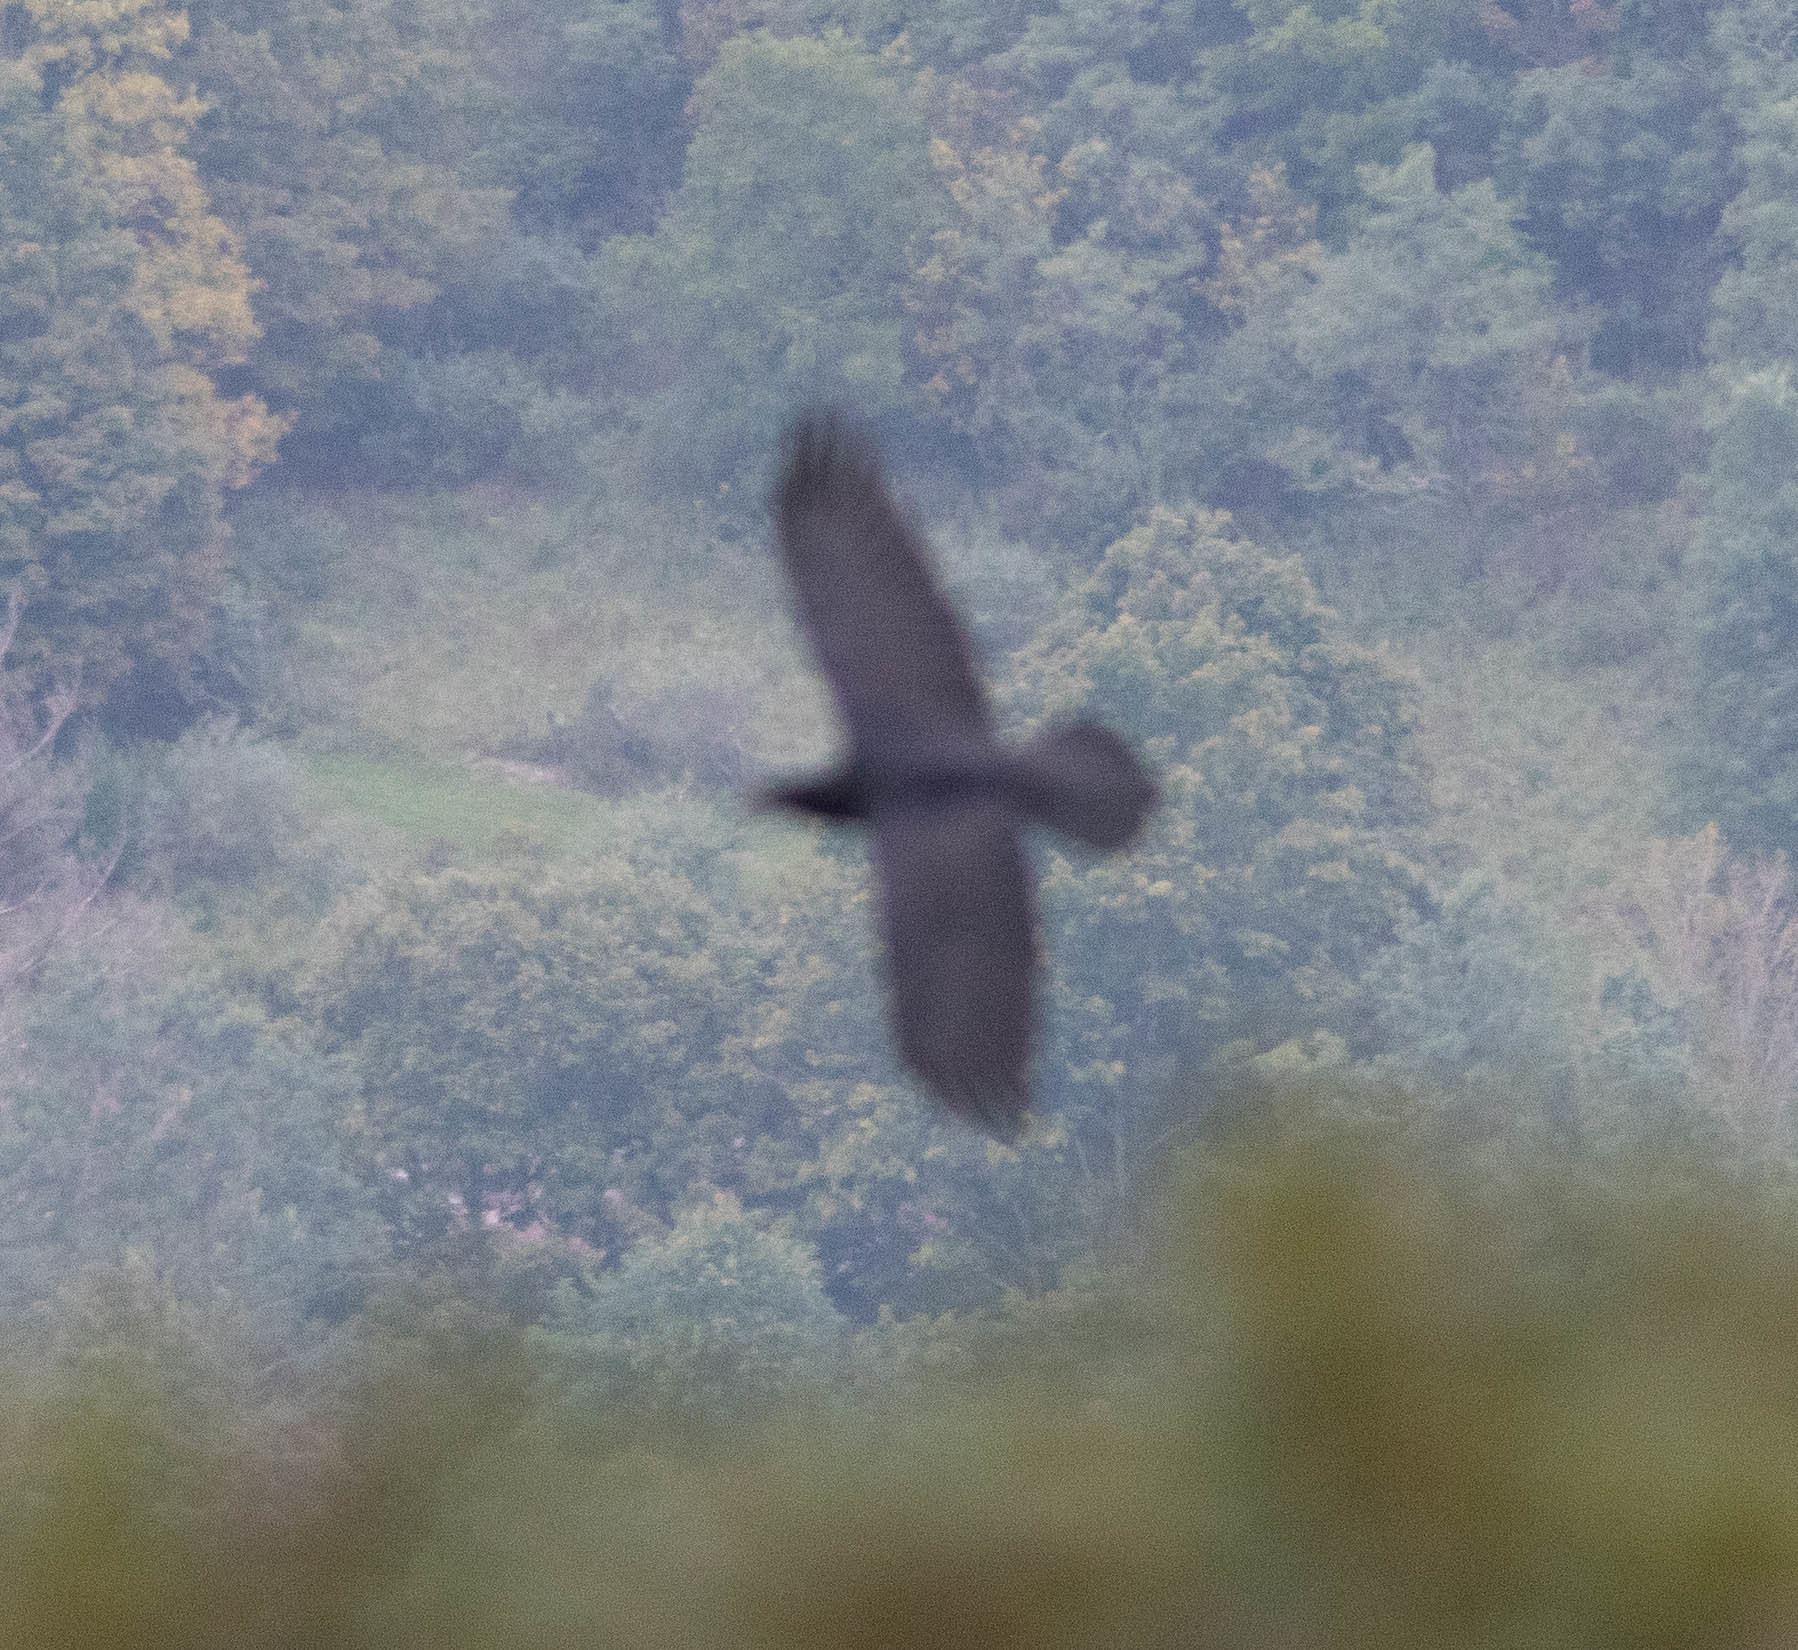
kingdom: Animalia
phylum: Chordata
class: Aves
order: Passeriformes
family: Corvidae
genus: Corvus
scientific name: Corvus corax
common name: Common raven
